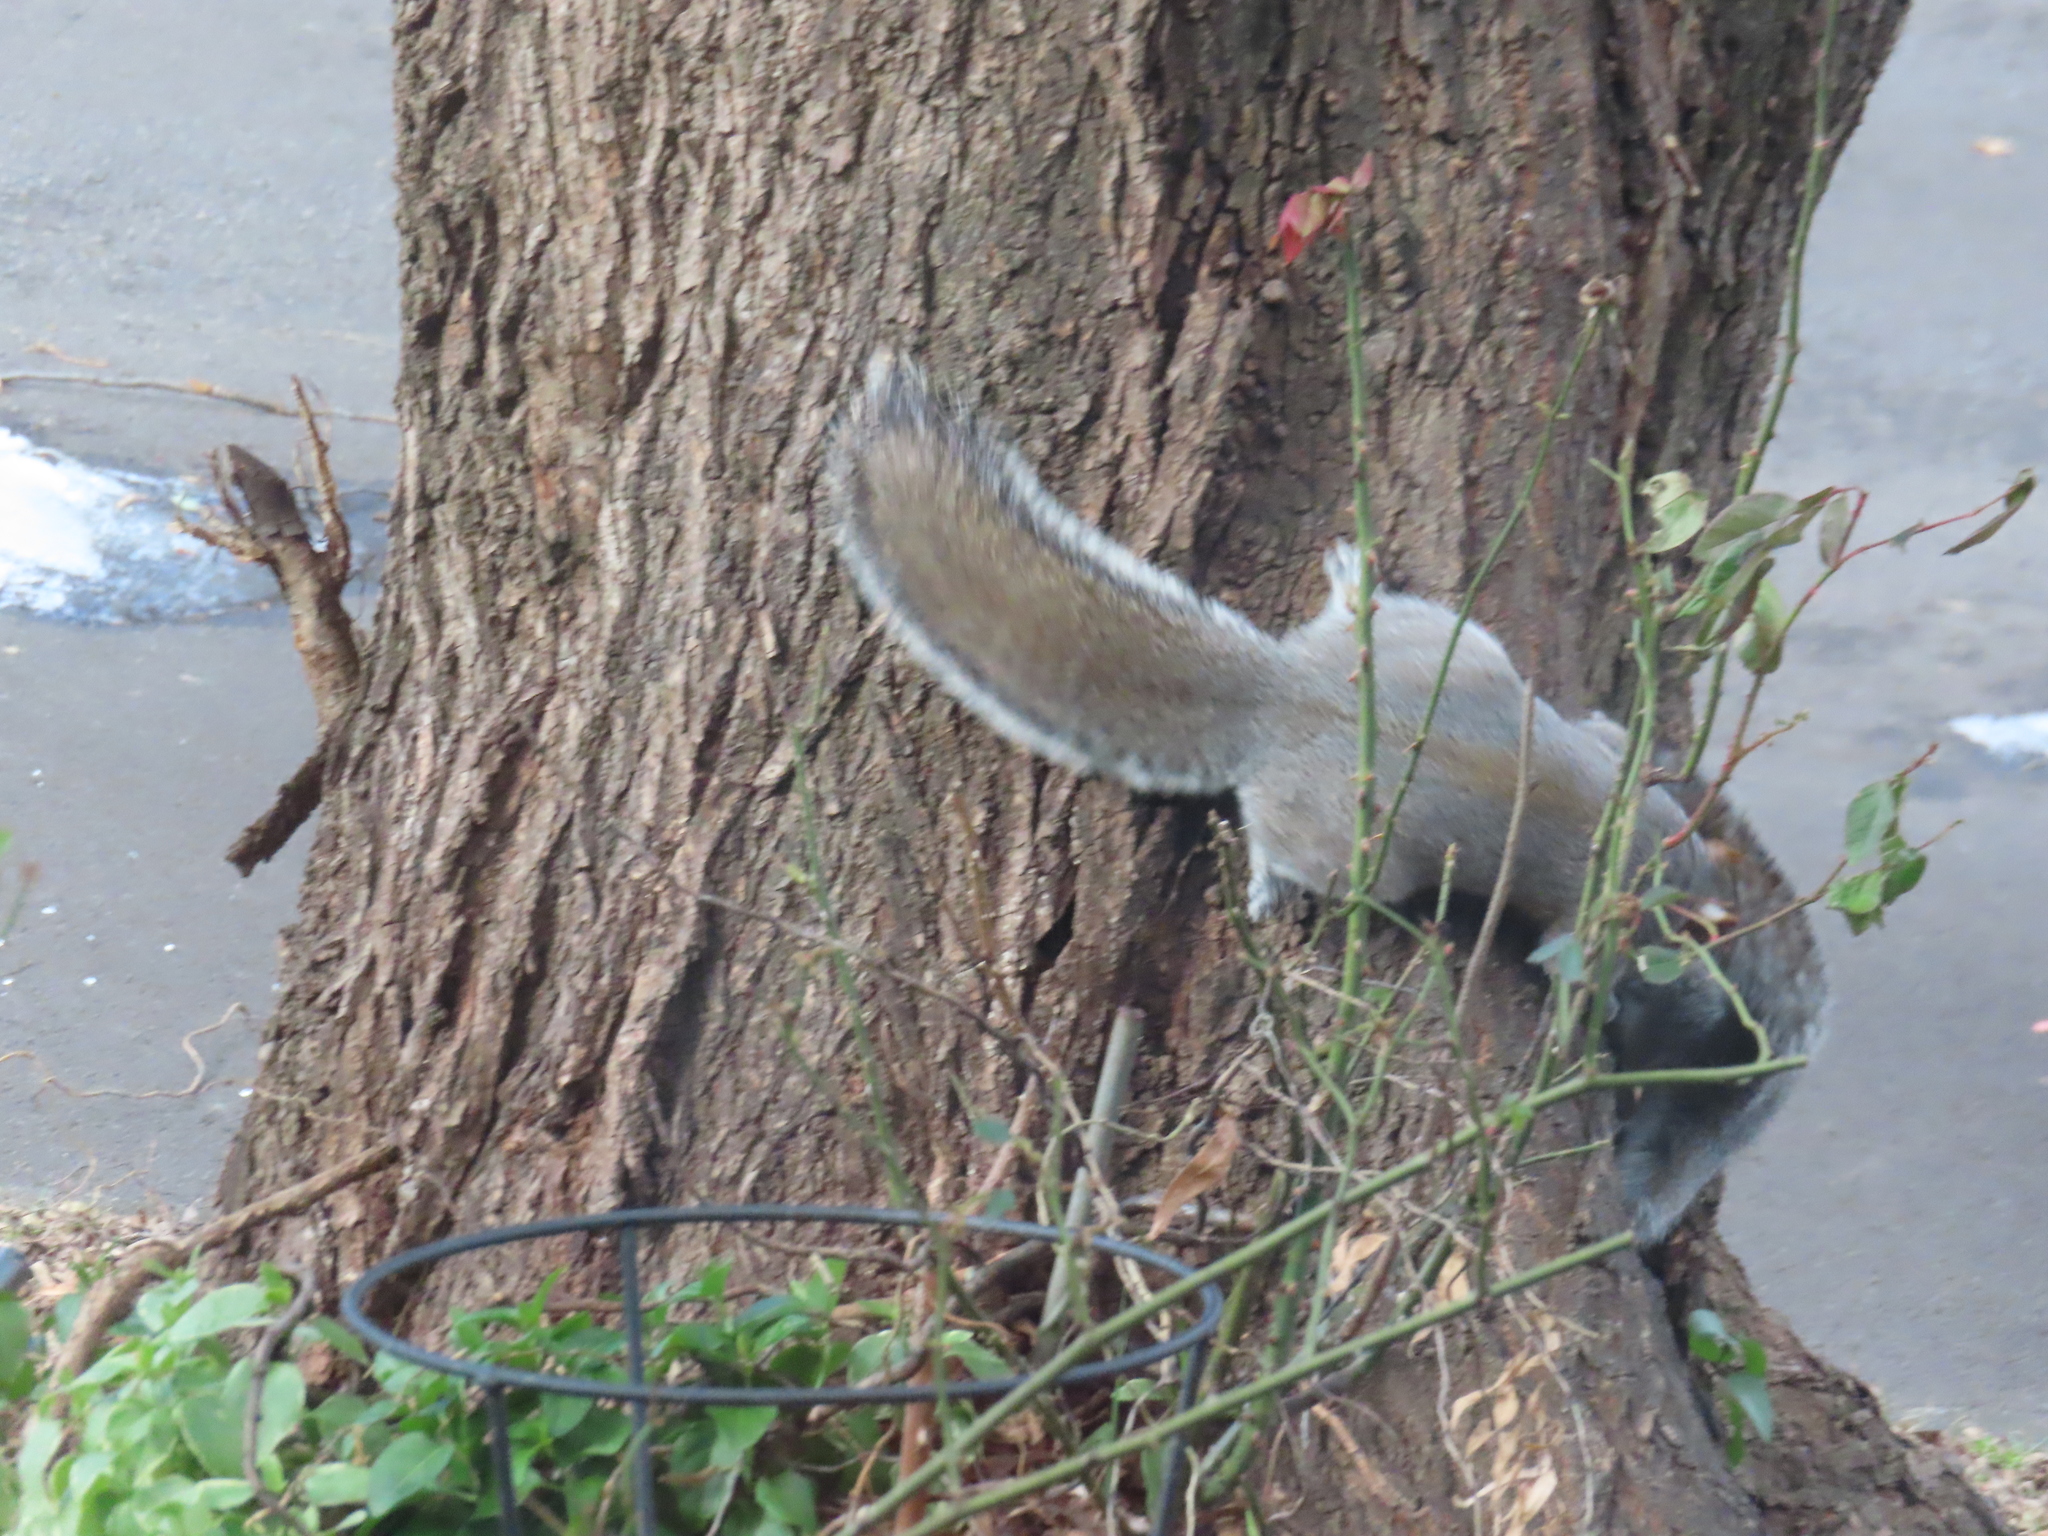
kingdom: Animalia
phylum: Chordata
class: Mammalia
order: Rodentia
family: Sciuridae
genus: Sciurus
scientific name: Sciurus carolinensis
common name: Eastern gray squirrel
